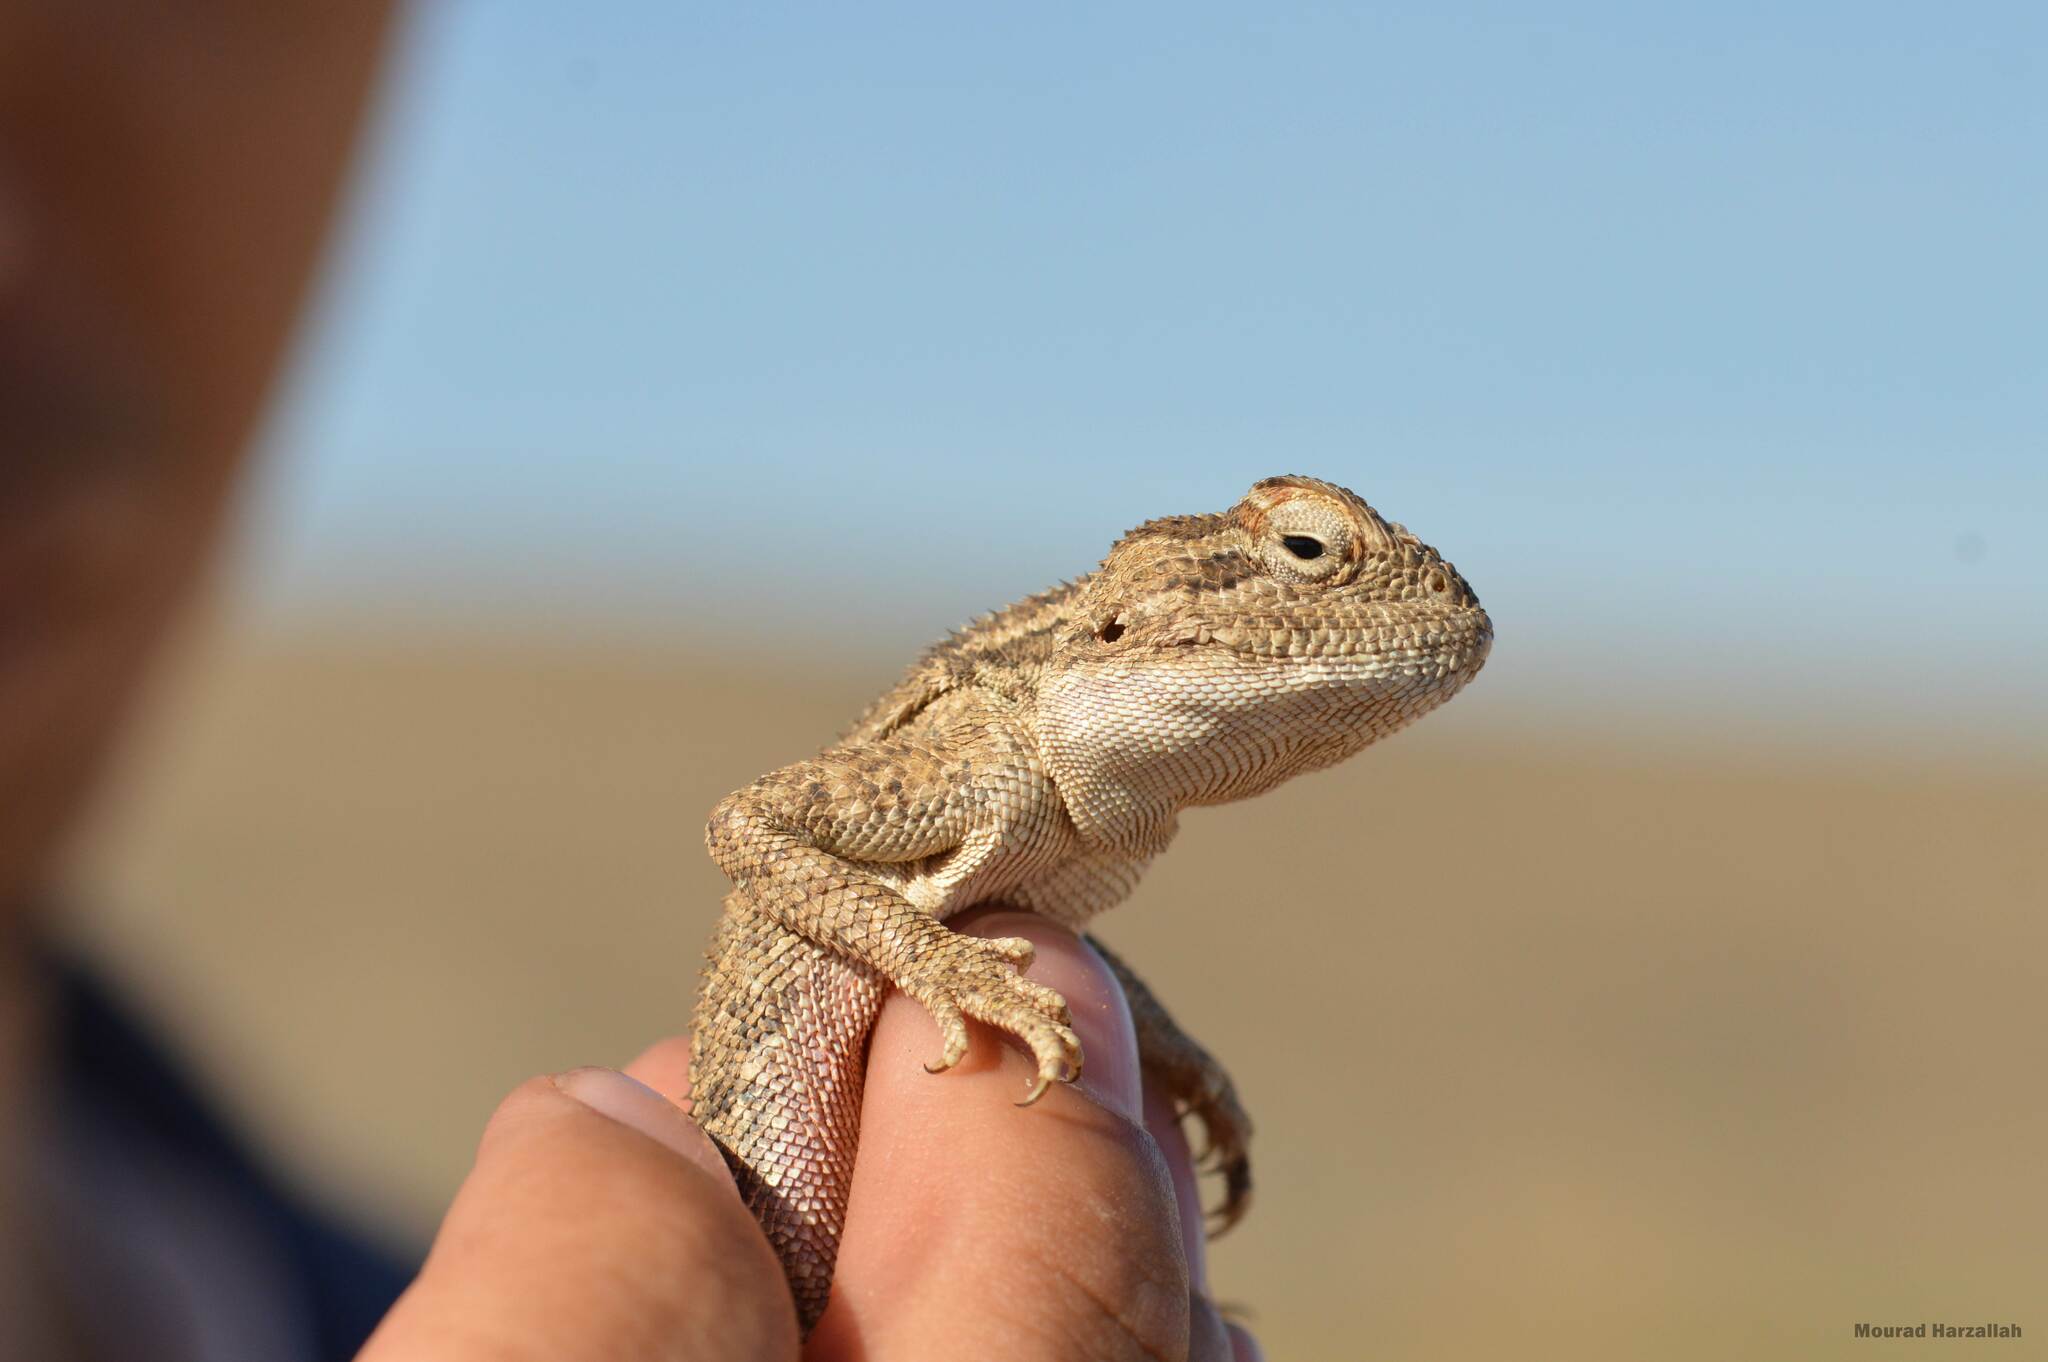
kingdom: Animalia
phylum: Chordata
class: Squamata
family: Agamidae
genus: Trapelus
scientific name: Trapelus mutabilis
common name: Desert agama
